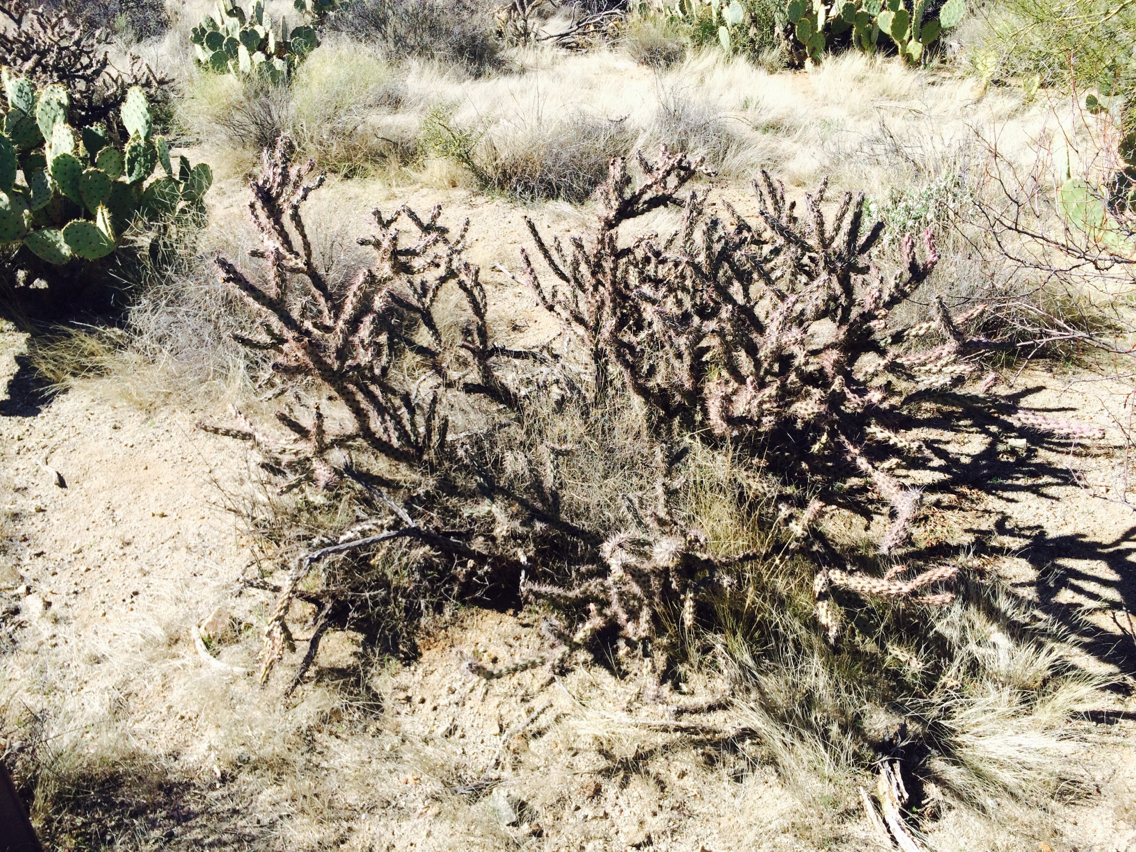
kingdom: Plantae
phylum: Tracheophyta
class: Magnoliopsida
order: Caryophyllales
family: Cactaceae
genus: Cylindropuntia
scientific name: Cylindropuntia acanthocarpa
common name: Buckhorn cholla
